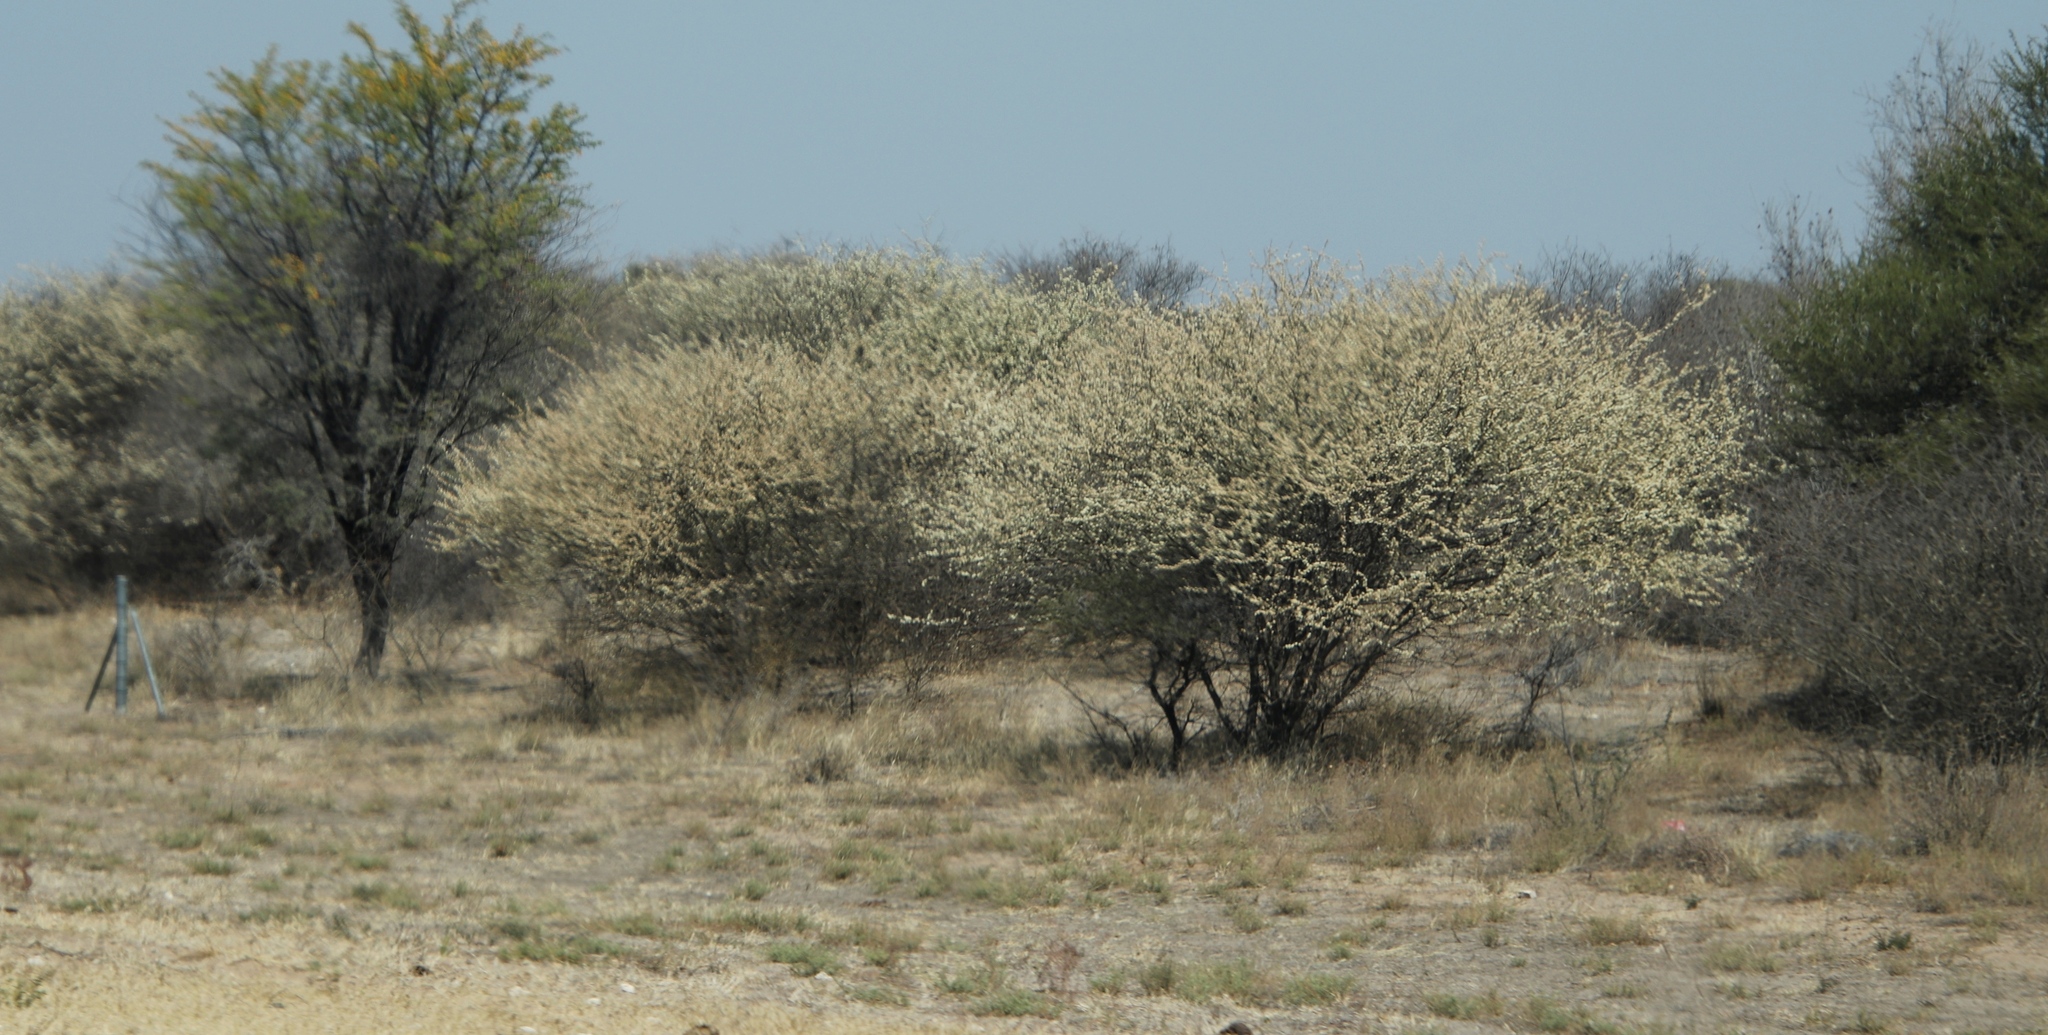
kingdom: Plantae
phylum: Tracheophyta
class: Magnoliopsida
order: Fabales
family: Fabaceae
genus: Senegalia
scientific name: Senegalia mellifera
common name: Hookthorn
